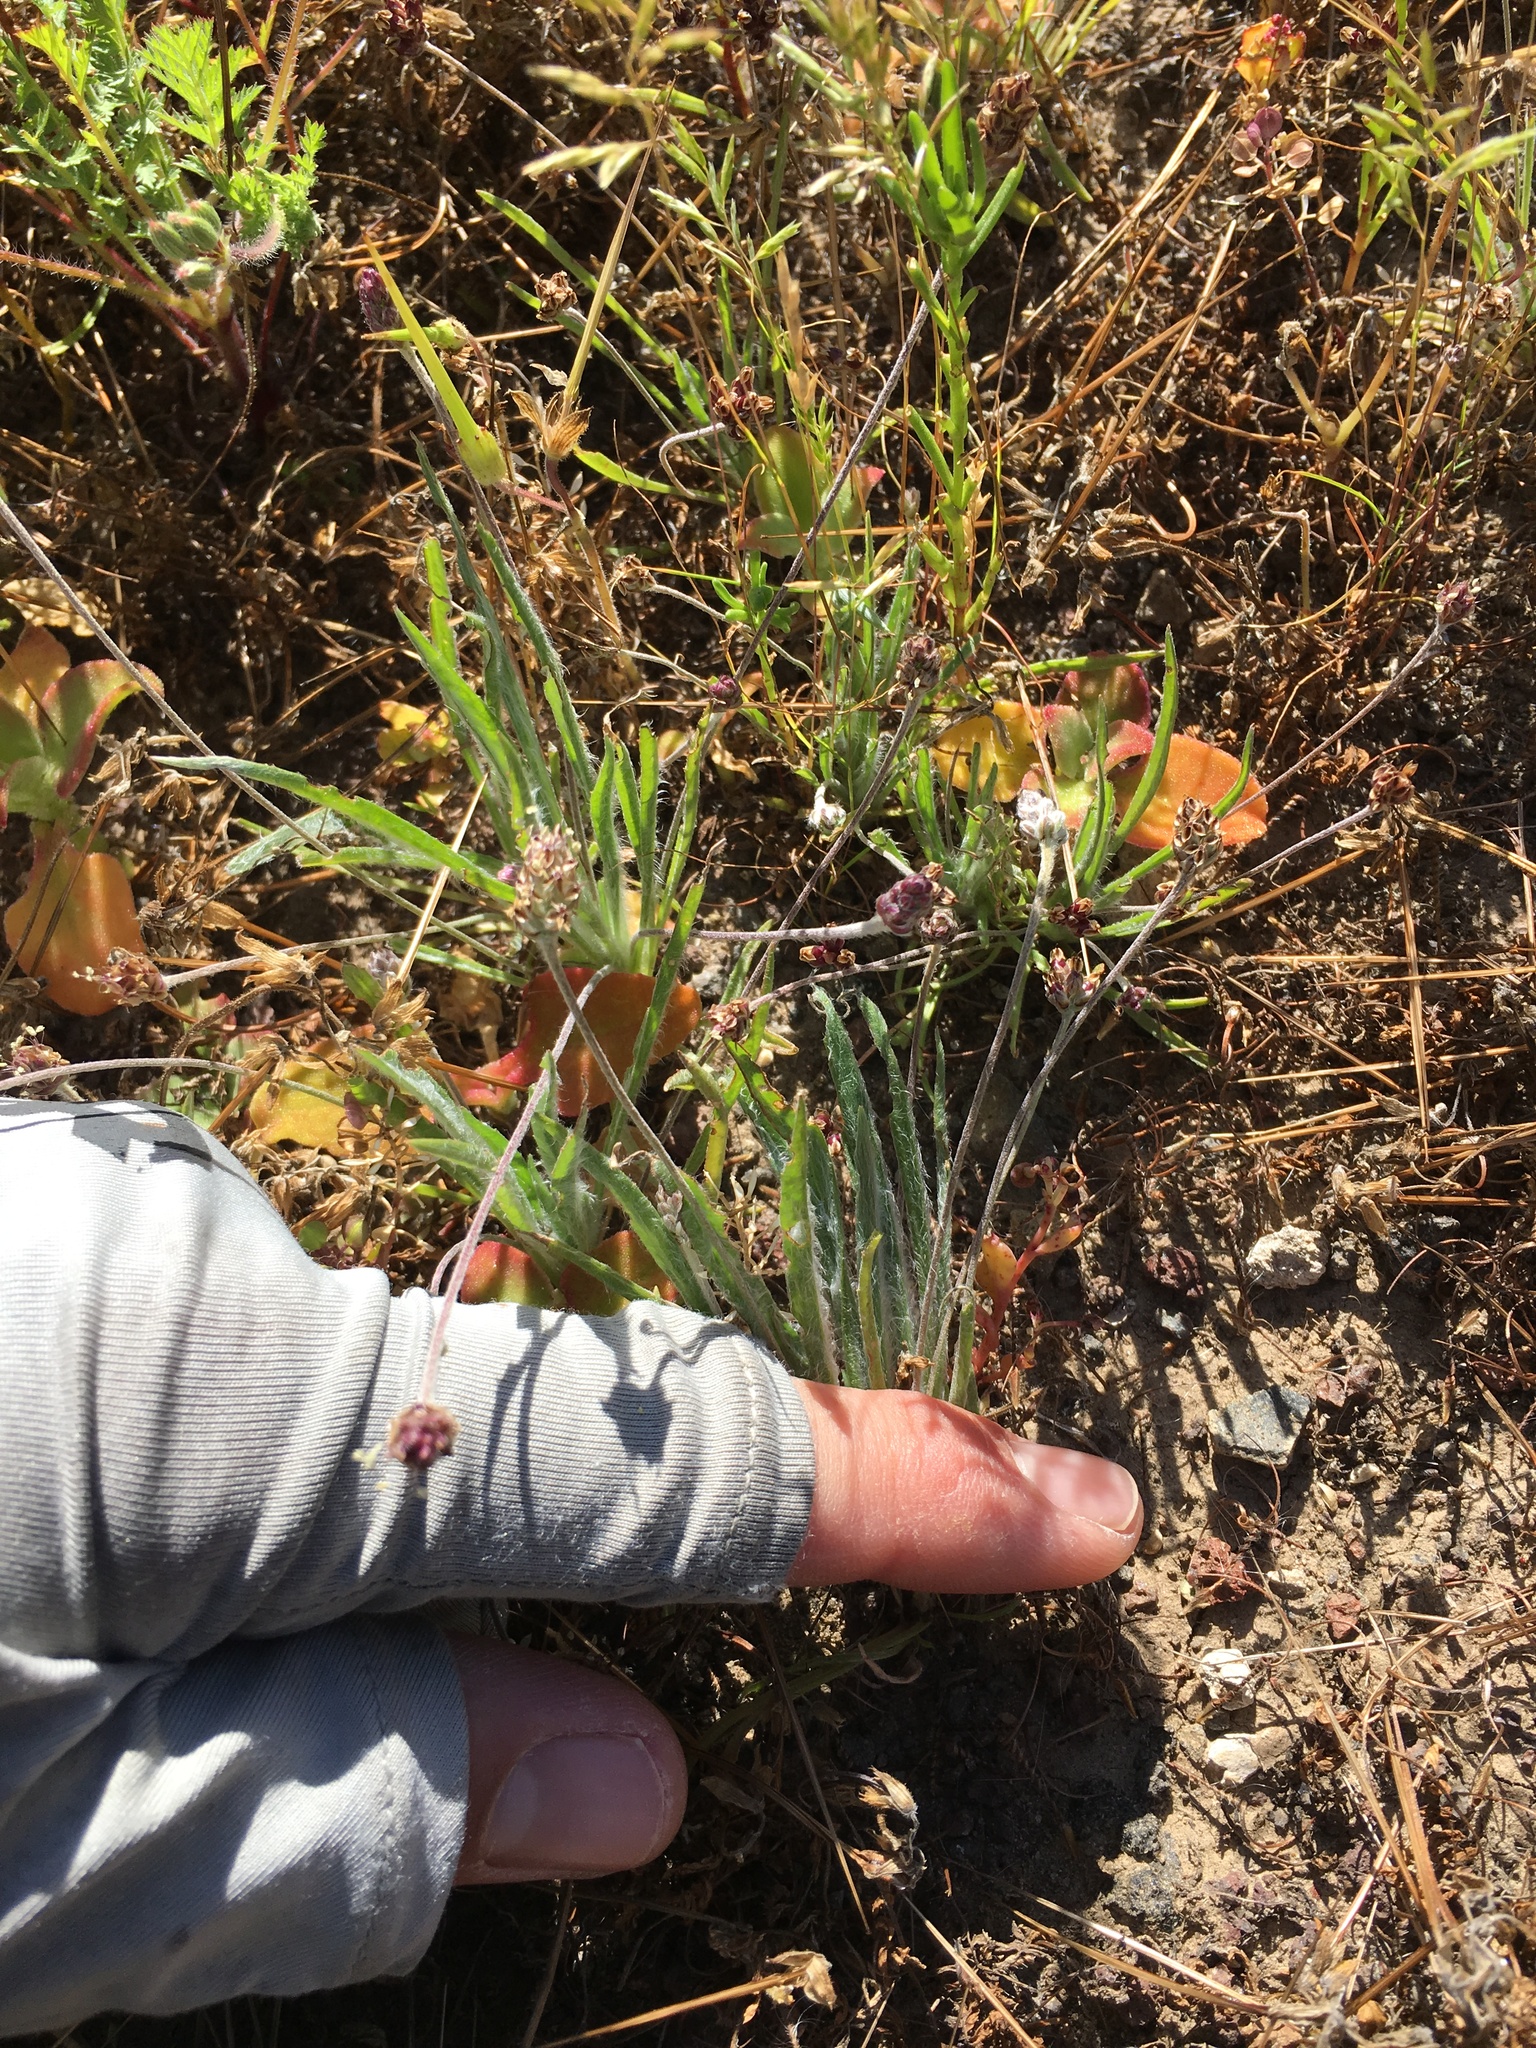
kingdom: Plantae
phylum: Tracheophyta
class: Magnoliopsida
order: Lamiales
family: Plantaginaceae
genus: Plantago
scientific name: Plantago ovata
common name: Blond plantain
